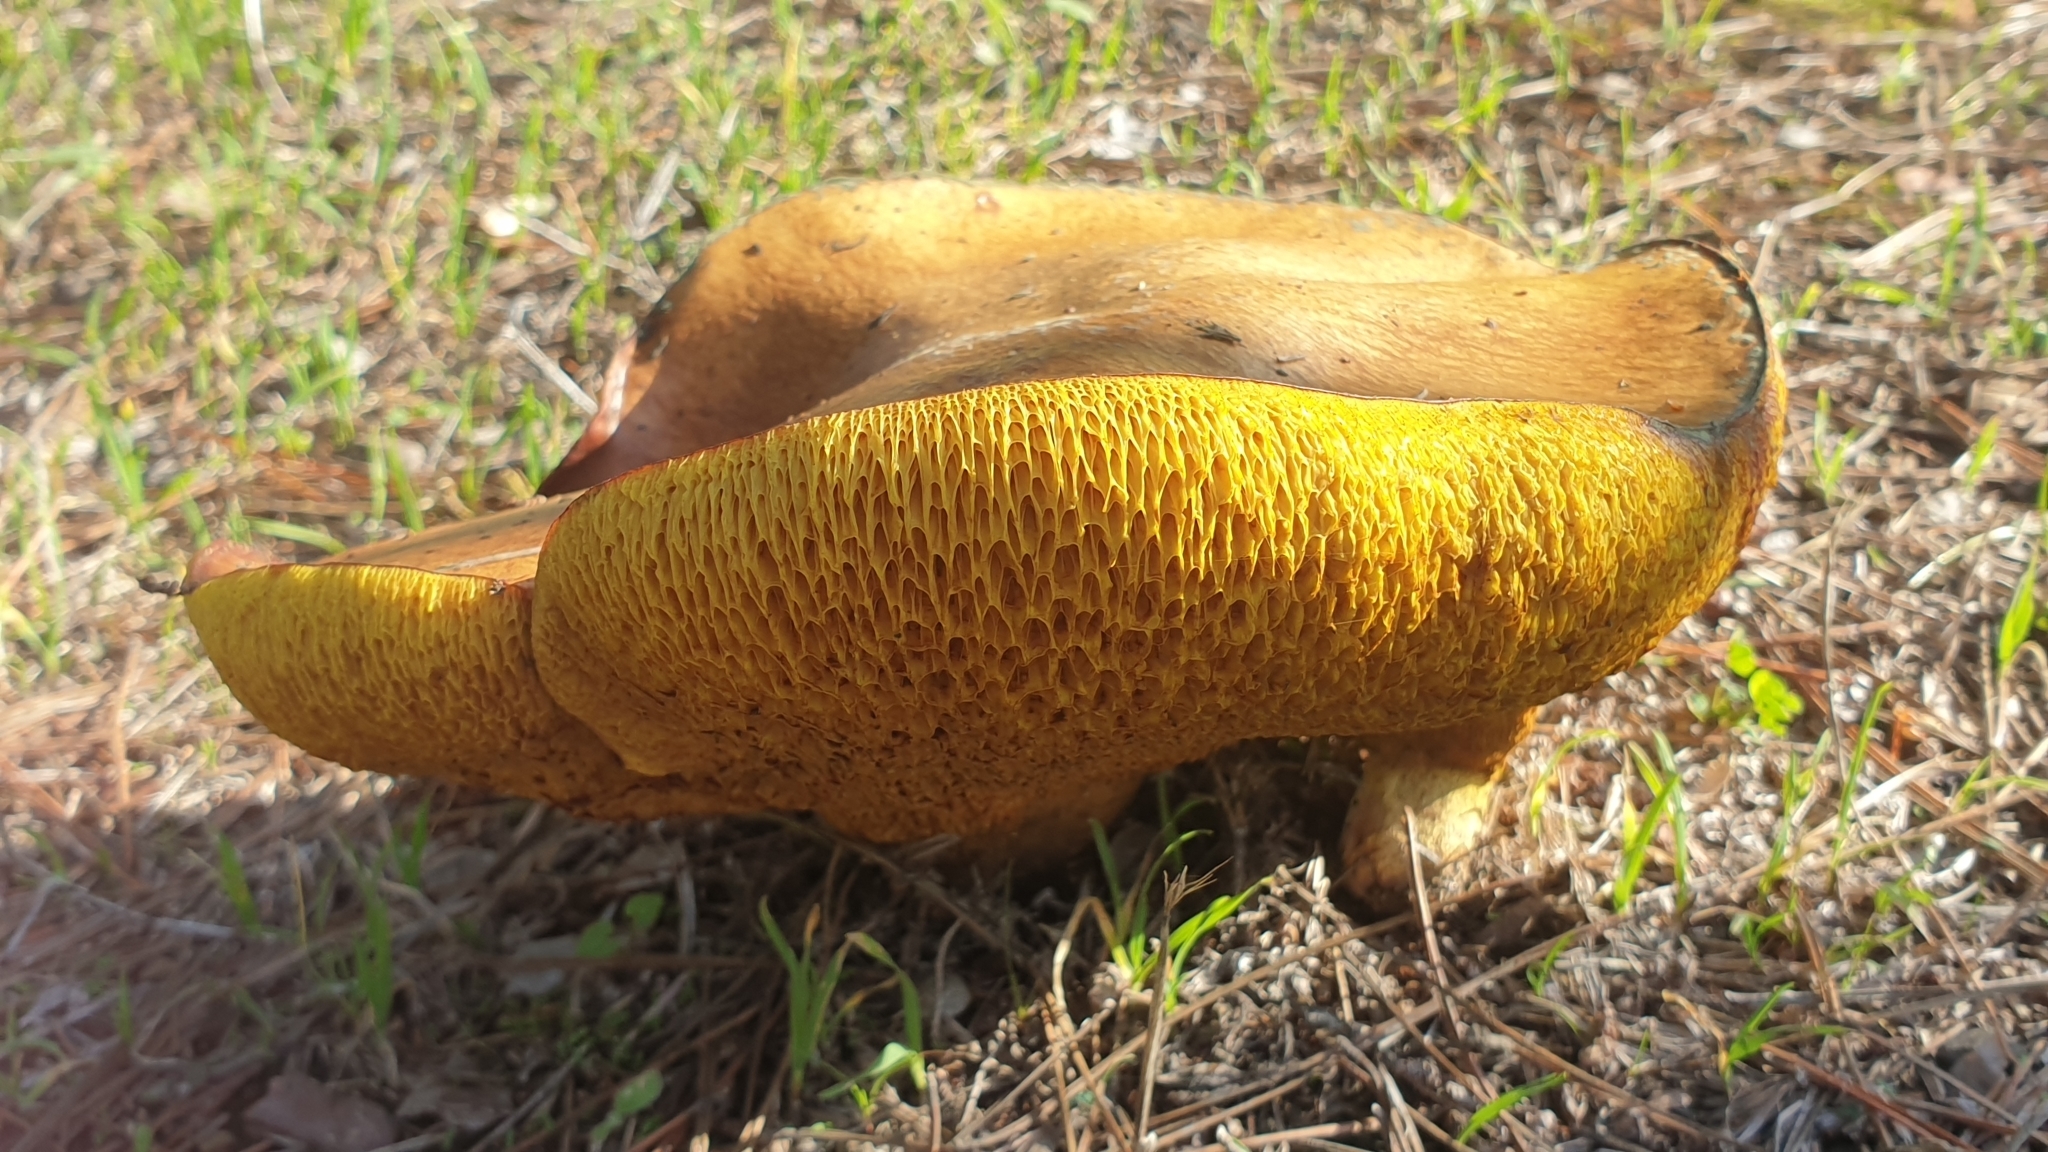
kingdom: Fungi
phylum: Basidiomycota
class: Agaricomycetes
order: Boletales
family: Suillaceae
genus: Suillus
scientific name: Suillus luteus
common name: Slippery jack
